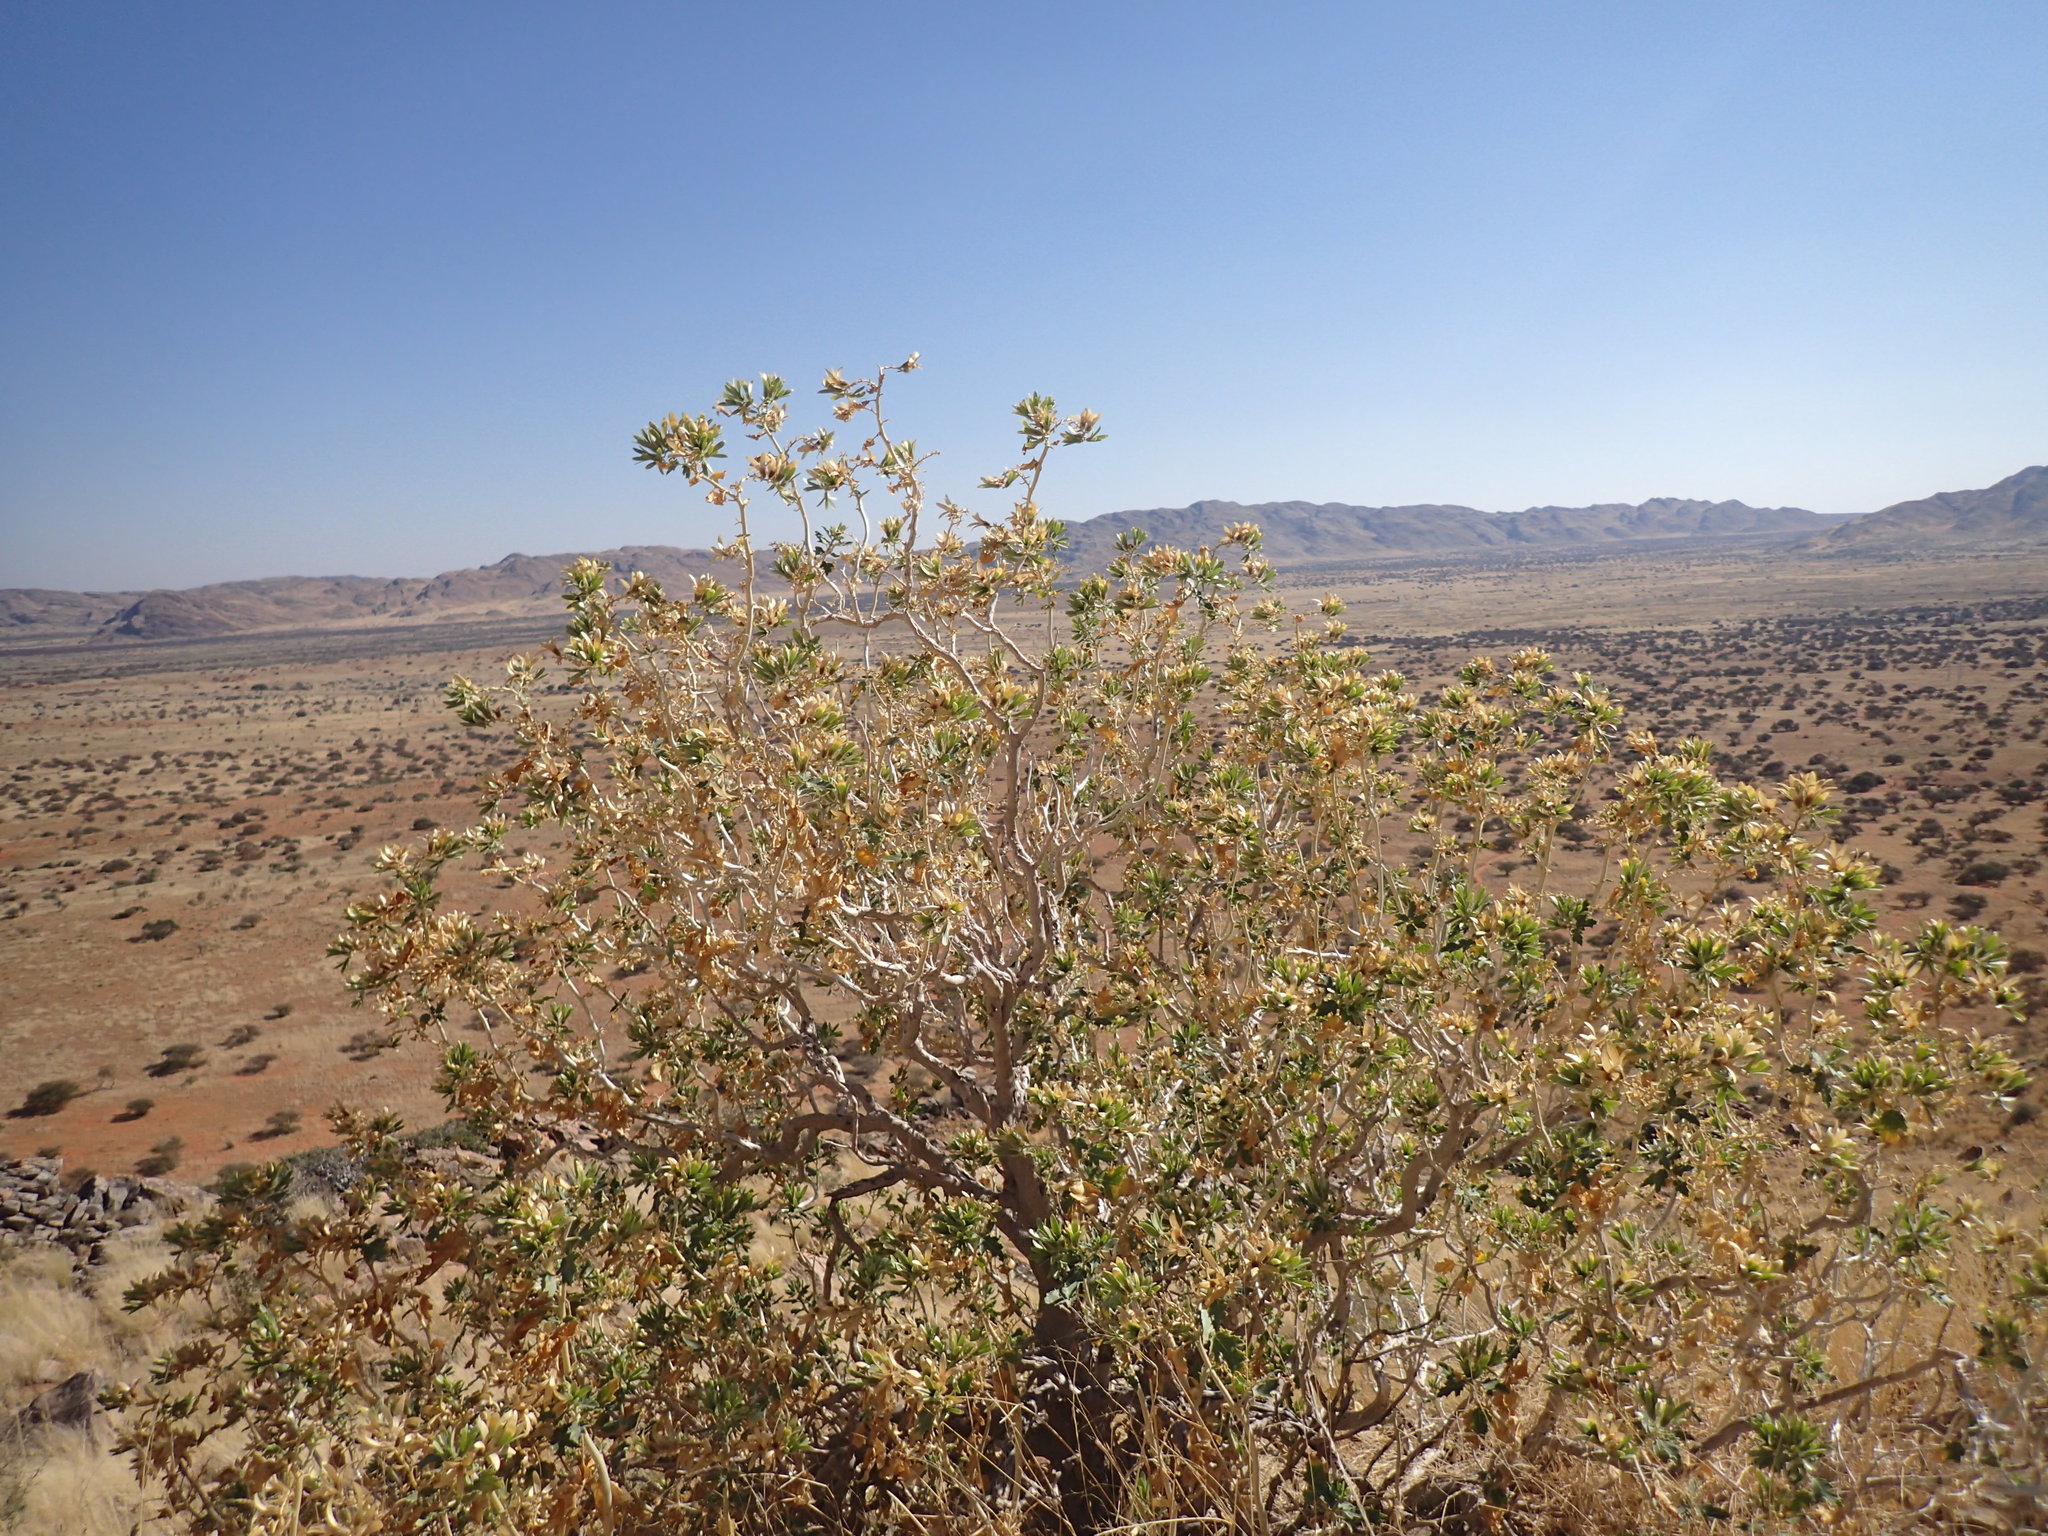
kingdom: Plantae
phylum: Tracheophyta
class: Magnoliopsida
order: Cornales
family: Loasaceae
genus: Kissenia
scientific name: Kissenia capensis
